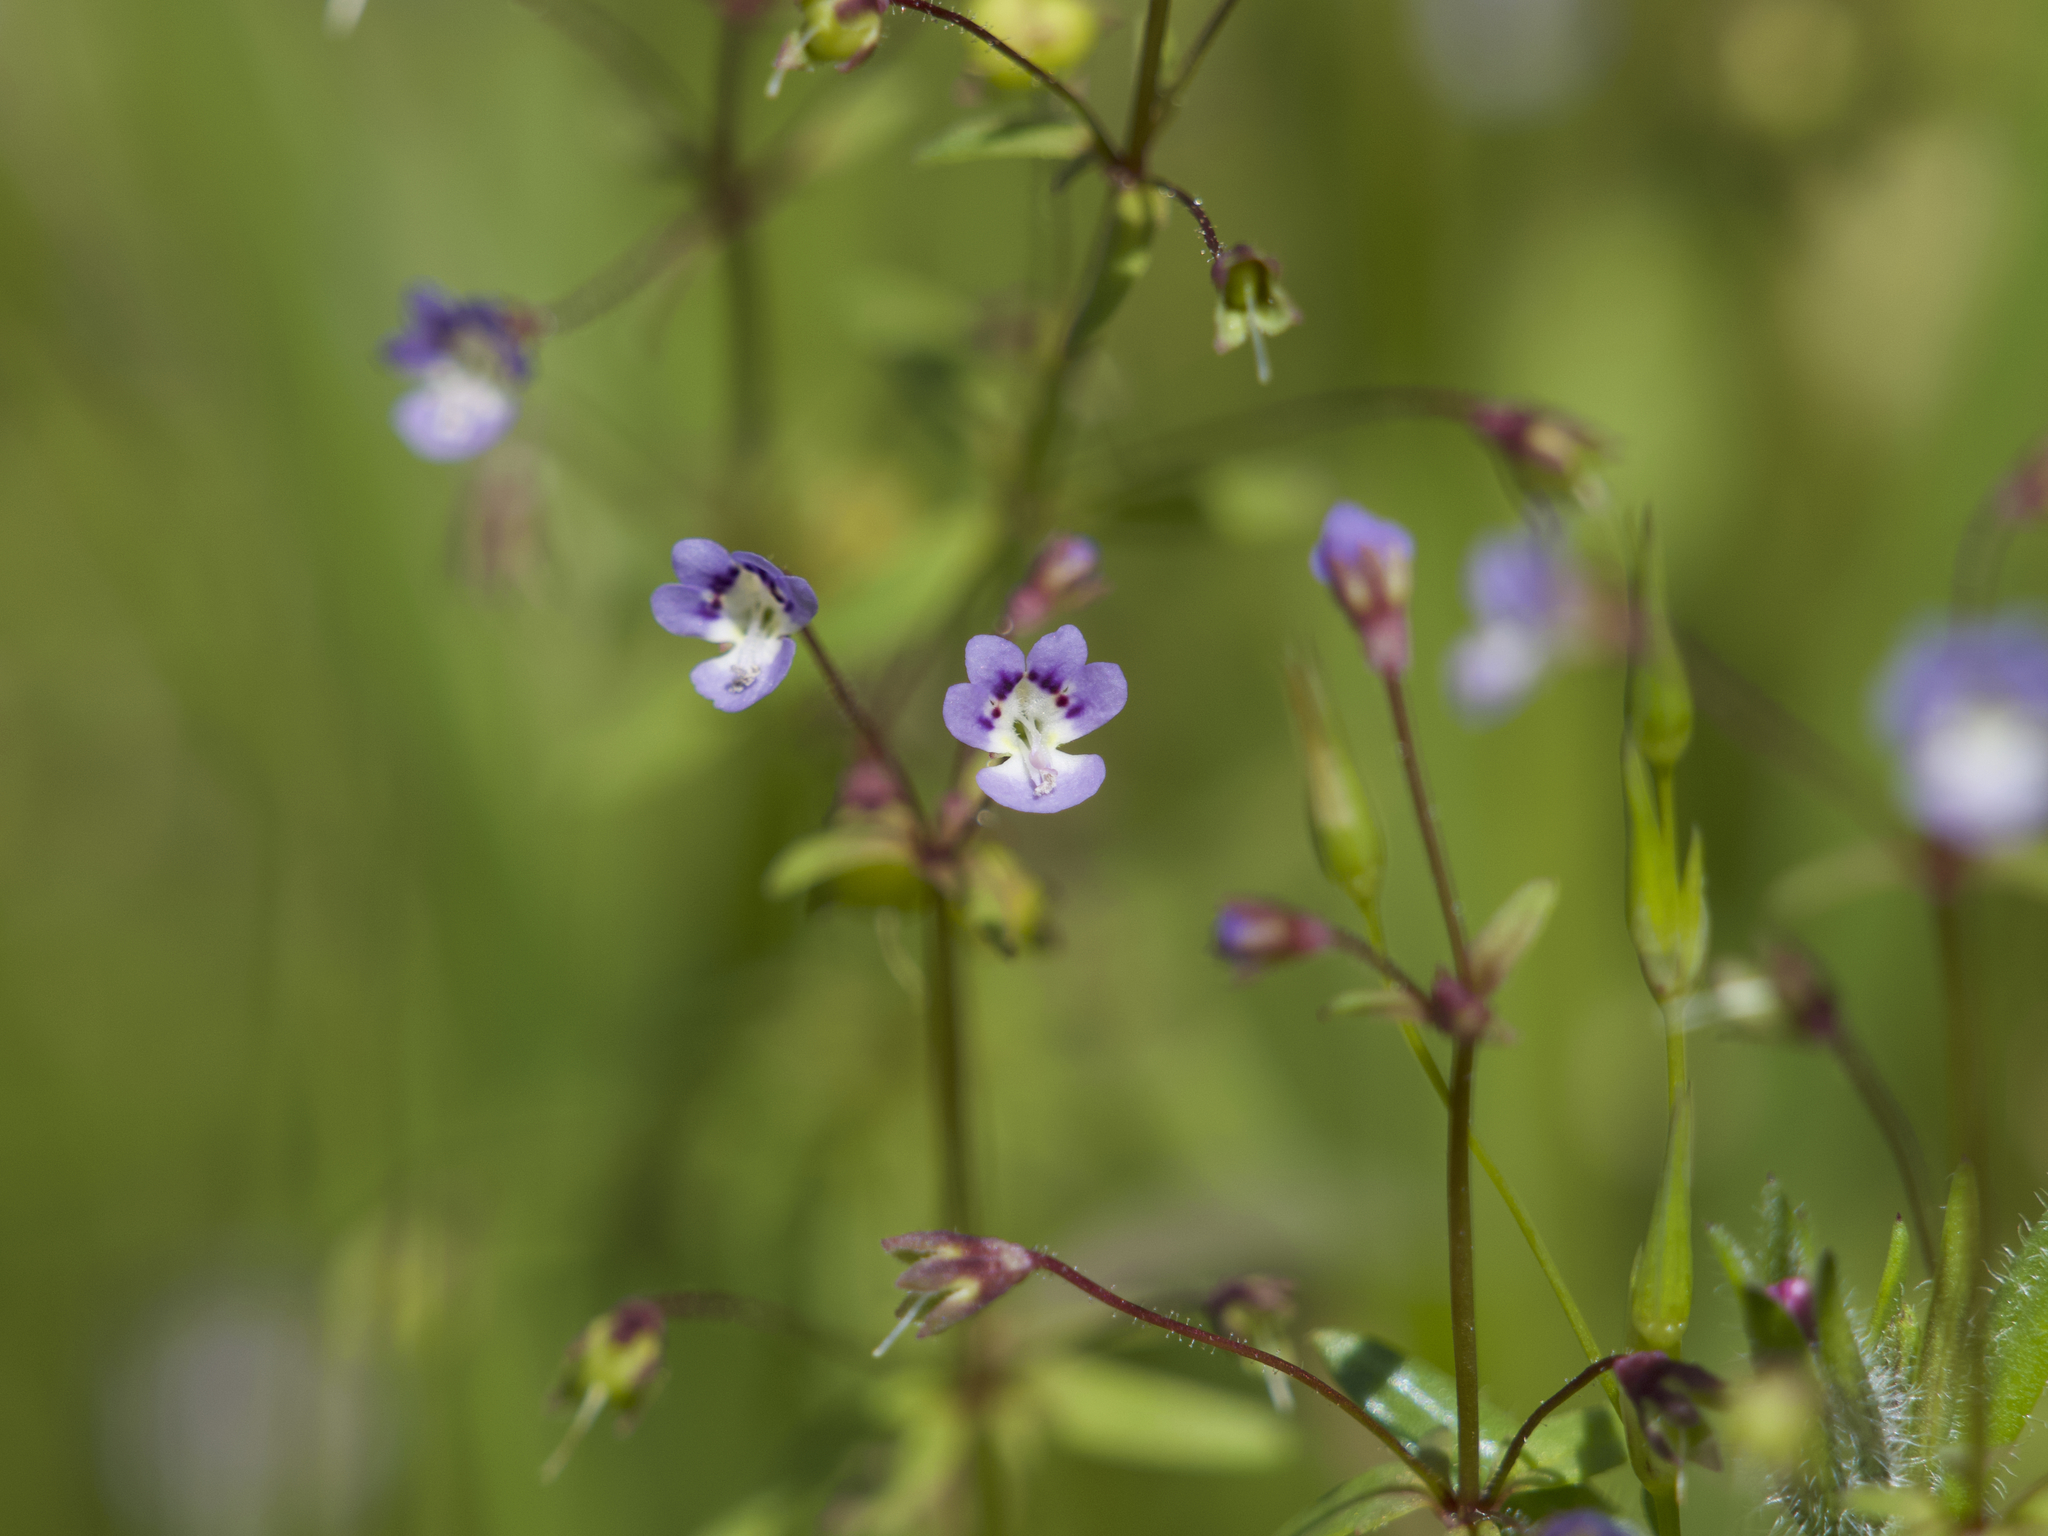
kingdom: Plantae
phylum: Tracheophyta
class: Magnoliopsida
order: Lamiales
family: Plantaginaceae
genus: Tonella
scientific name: Tonella tenella
